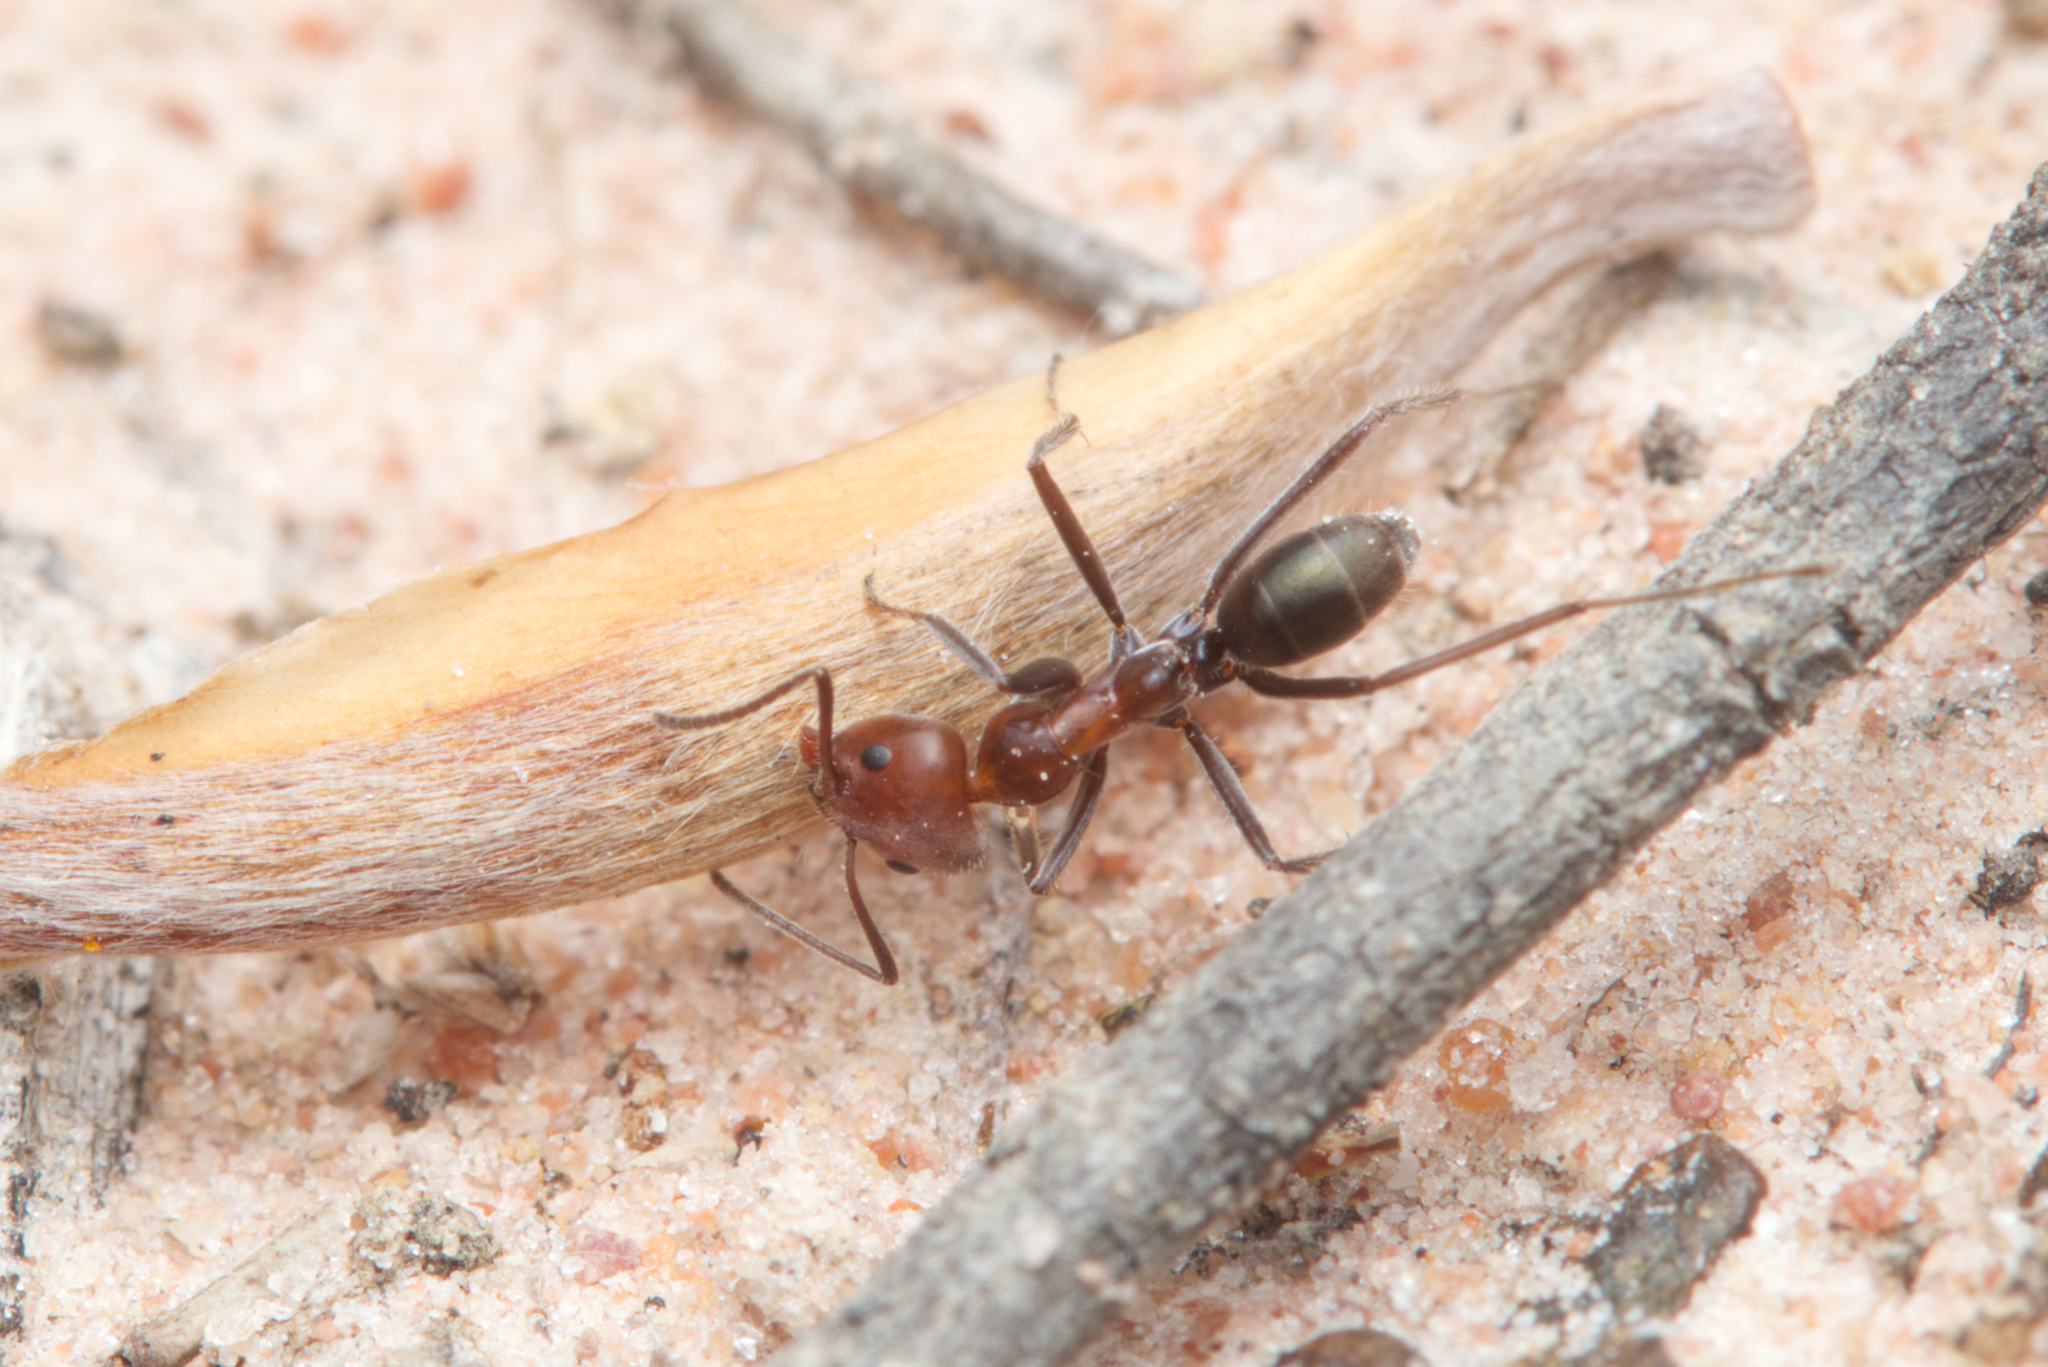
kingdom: Animalia
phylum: Arthropoda
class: Insecta
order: Hymenoptera
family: Formicidae
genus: Iridomyrmex
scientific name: Iridomyrmex discors
